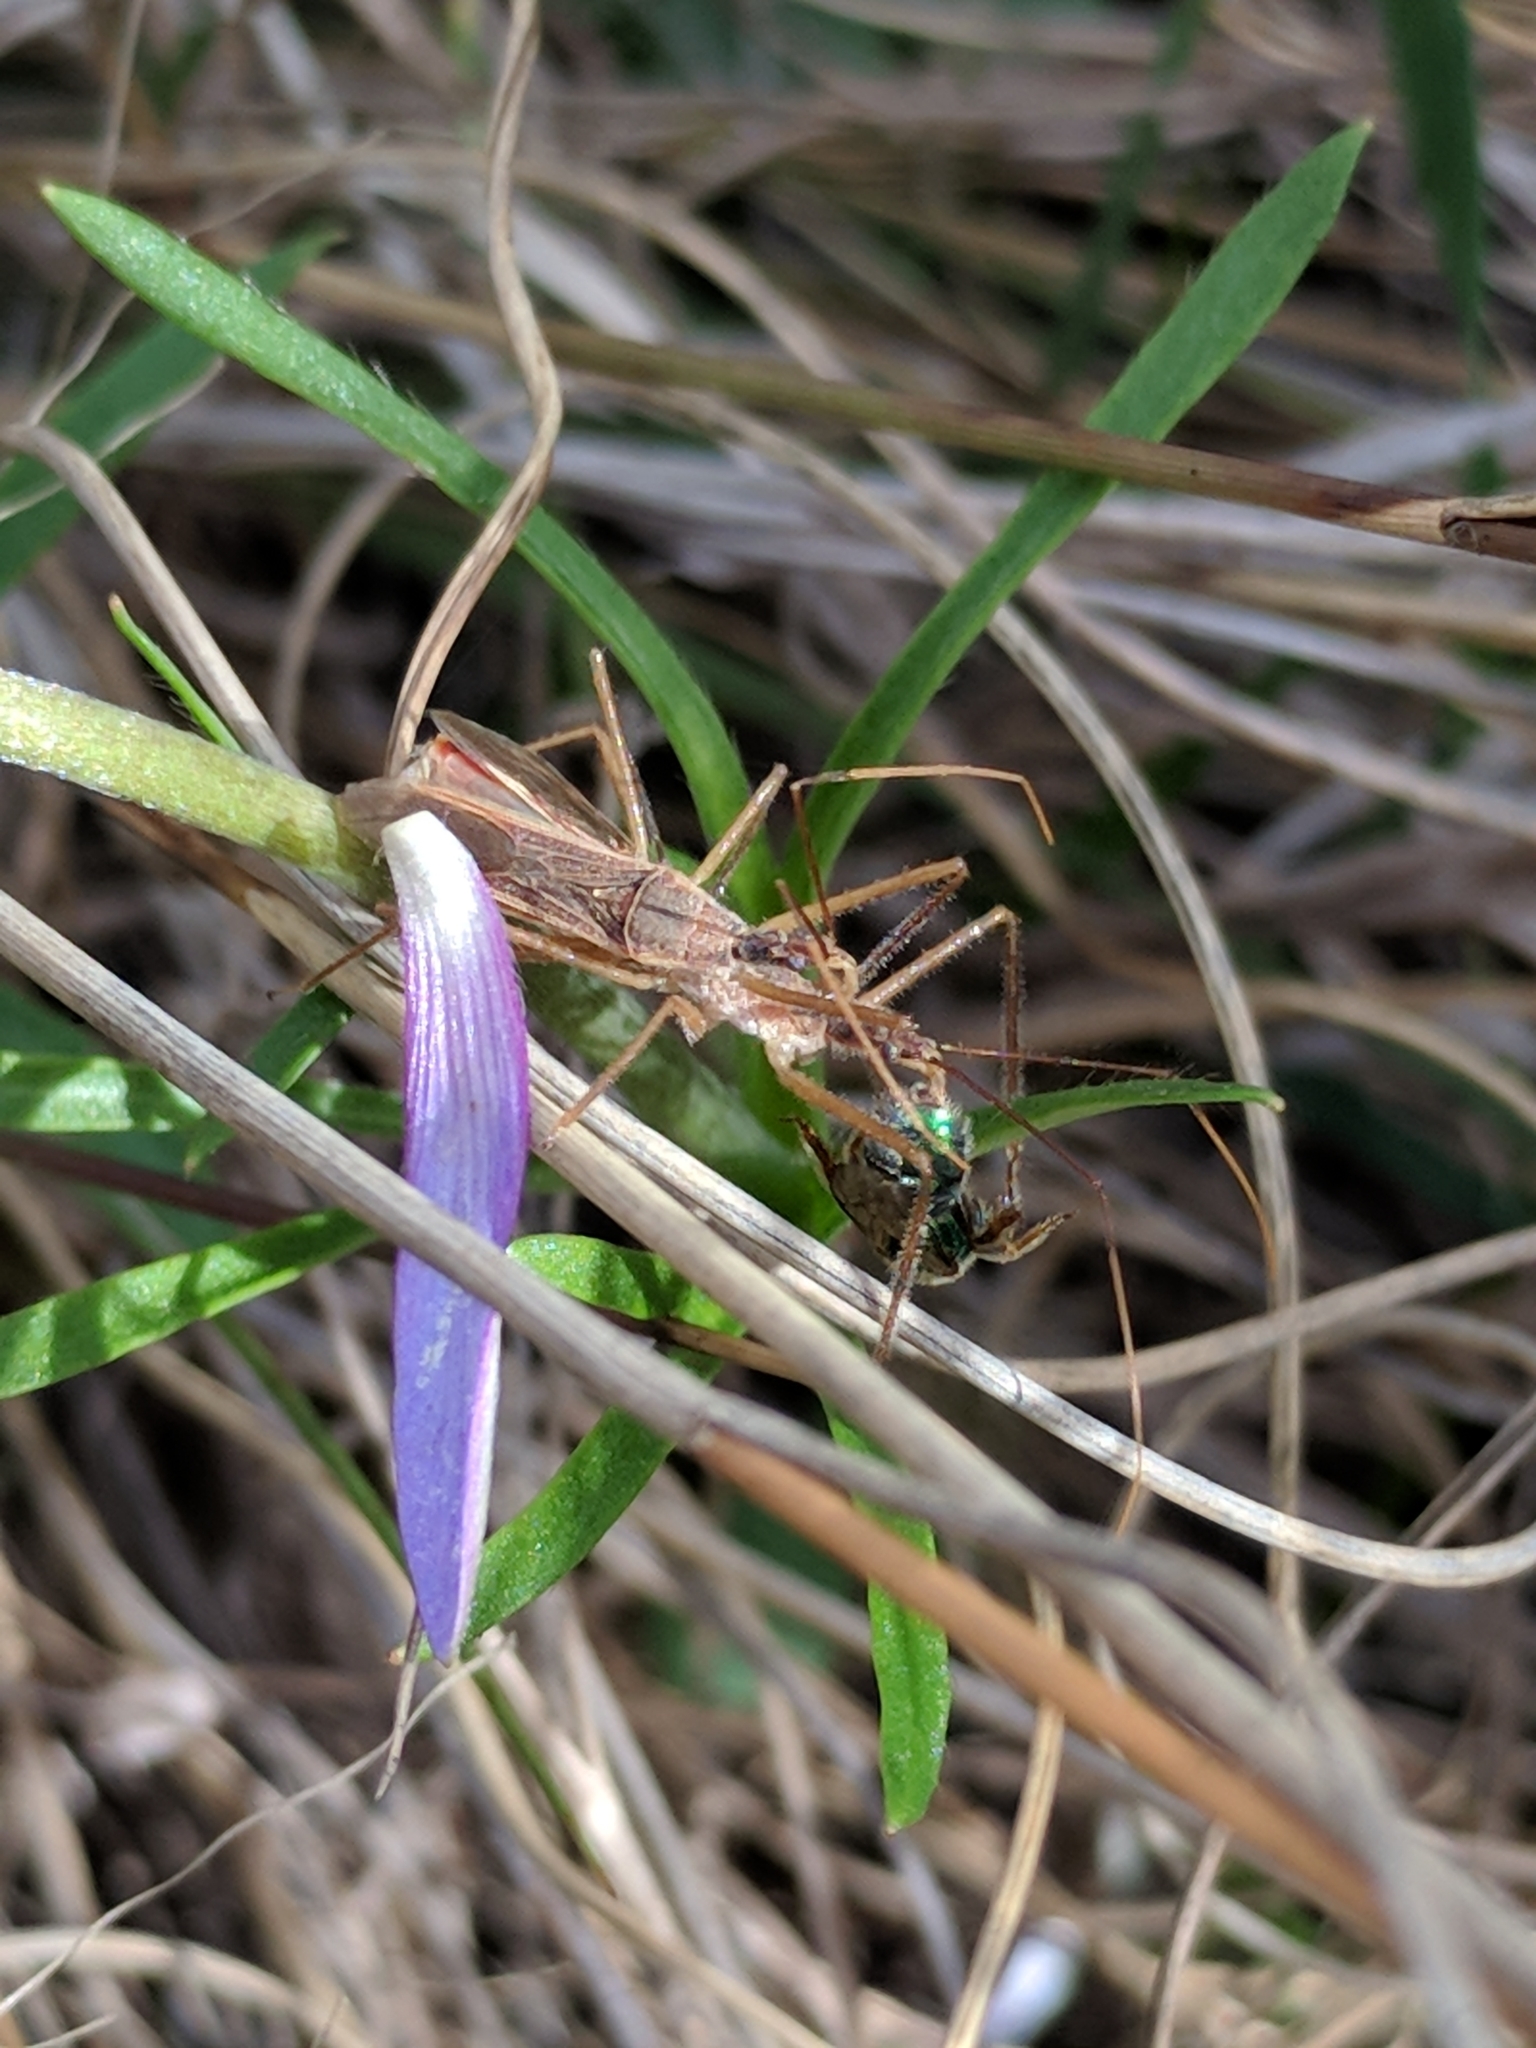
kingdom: Animalia
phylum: Arthropoda
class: Insecta
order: Hymenoptera
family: Halictidae
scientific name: Halictidae
